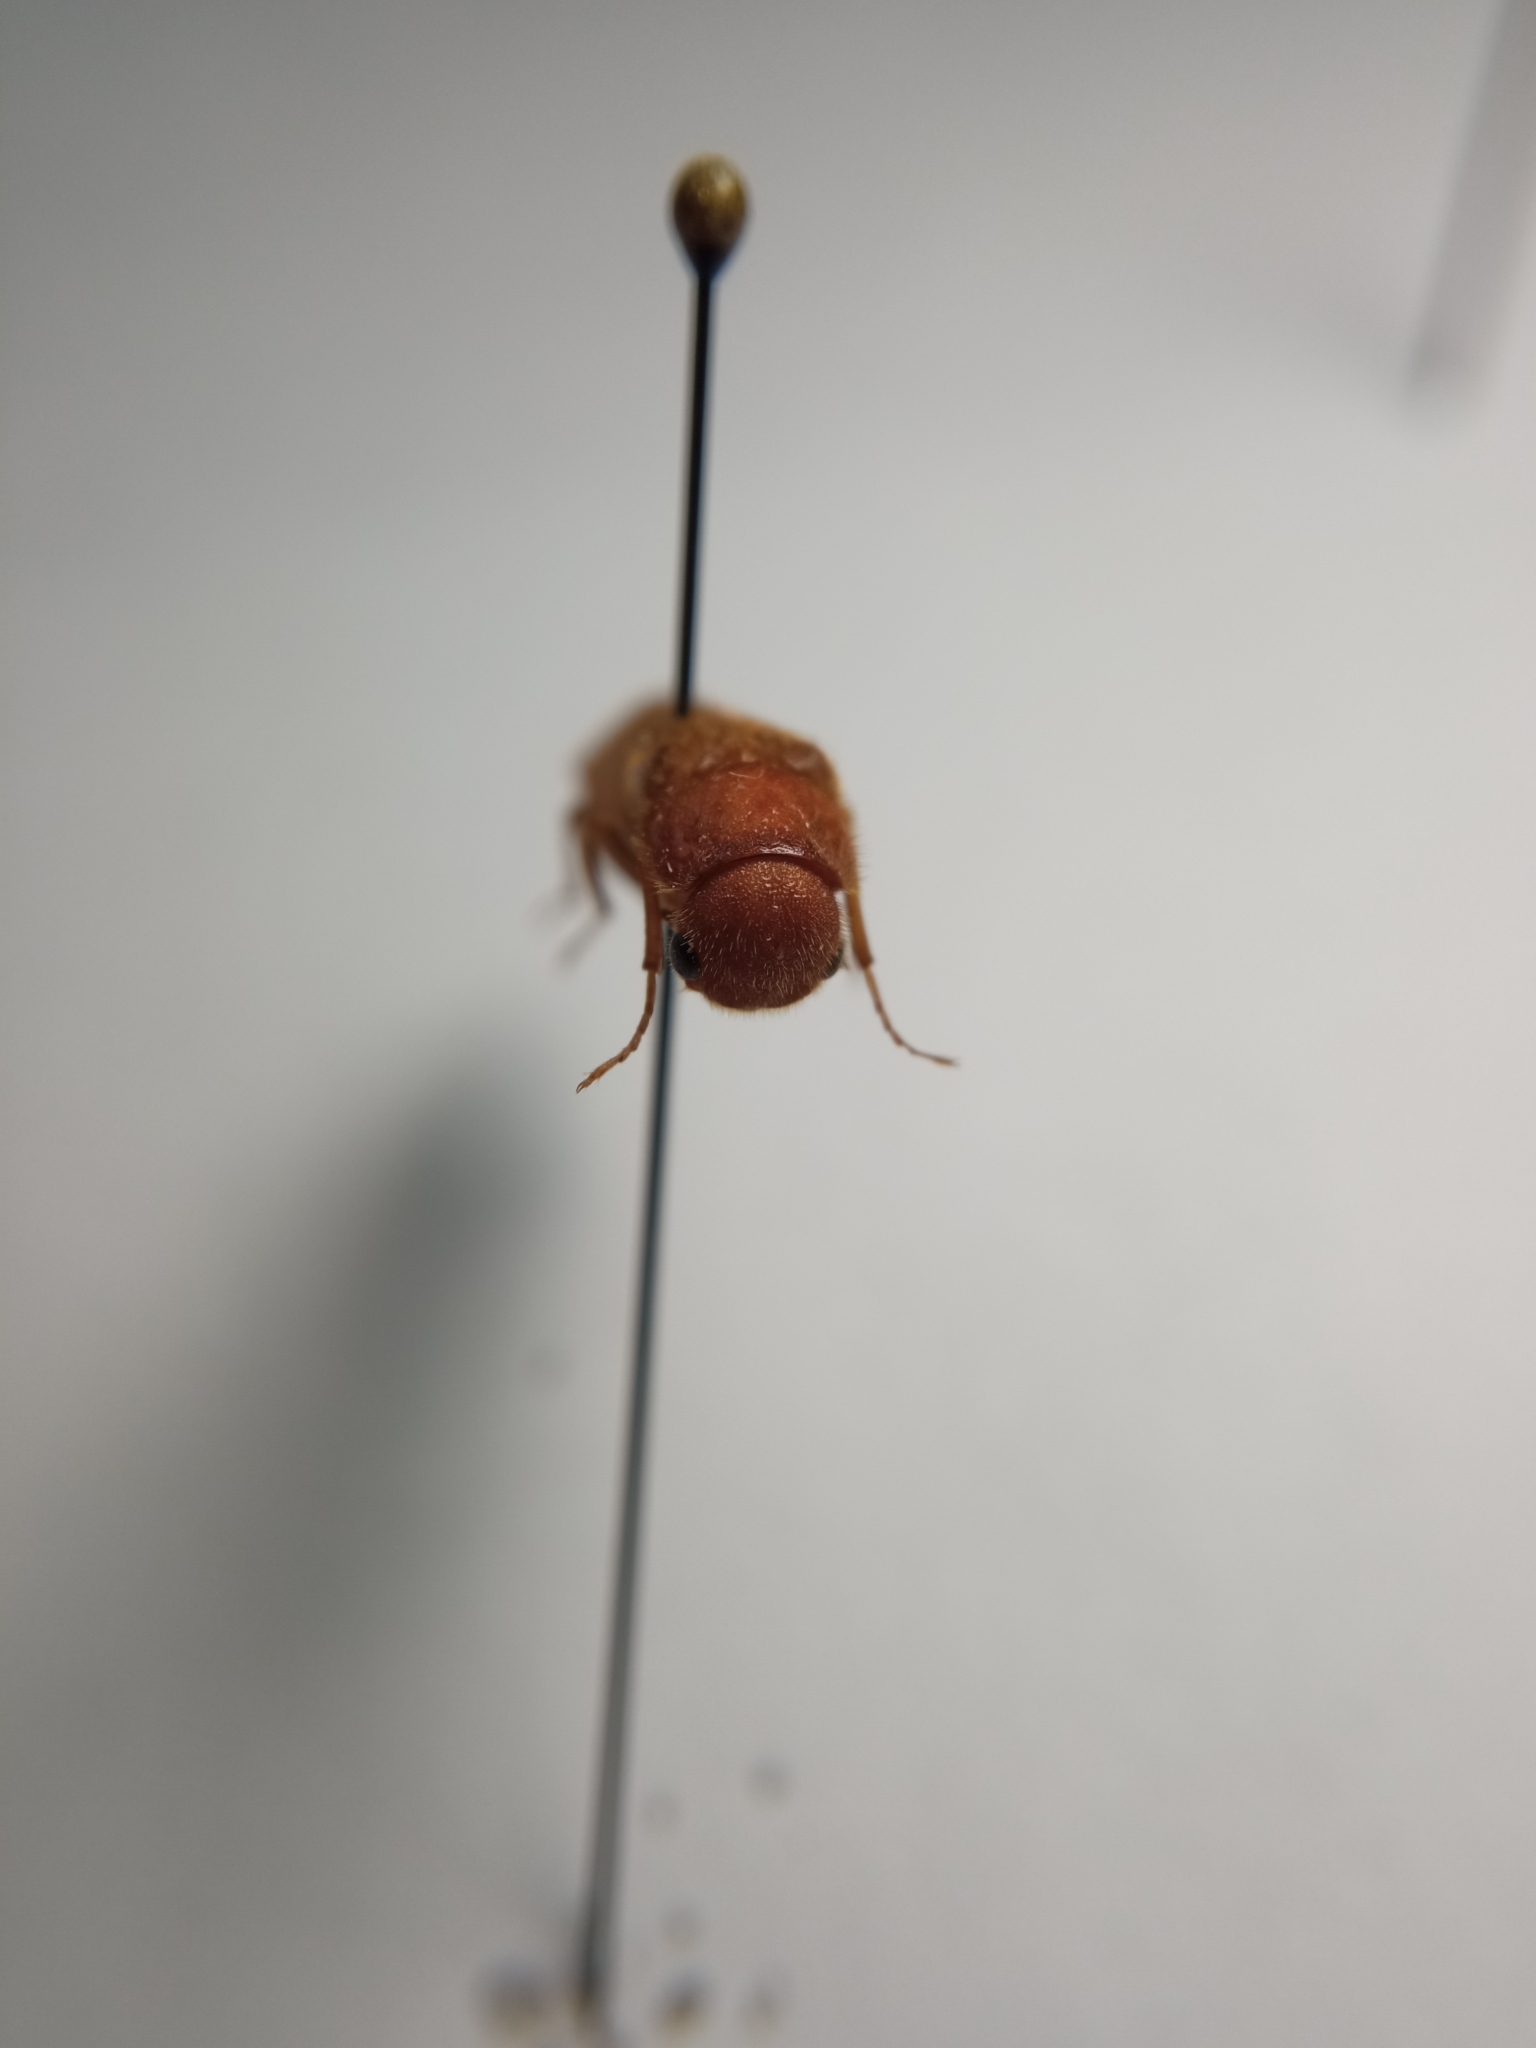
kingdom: Animalia
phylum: Arthropoda
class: Insecta
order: Coleoptera
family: Lymexylidae
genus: Hylecoetus
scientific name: Hylecoetus dermestoides
